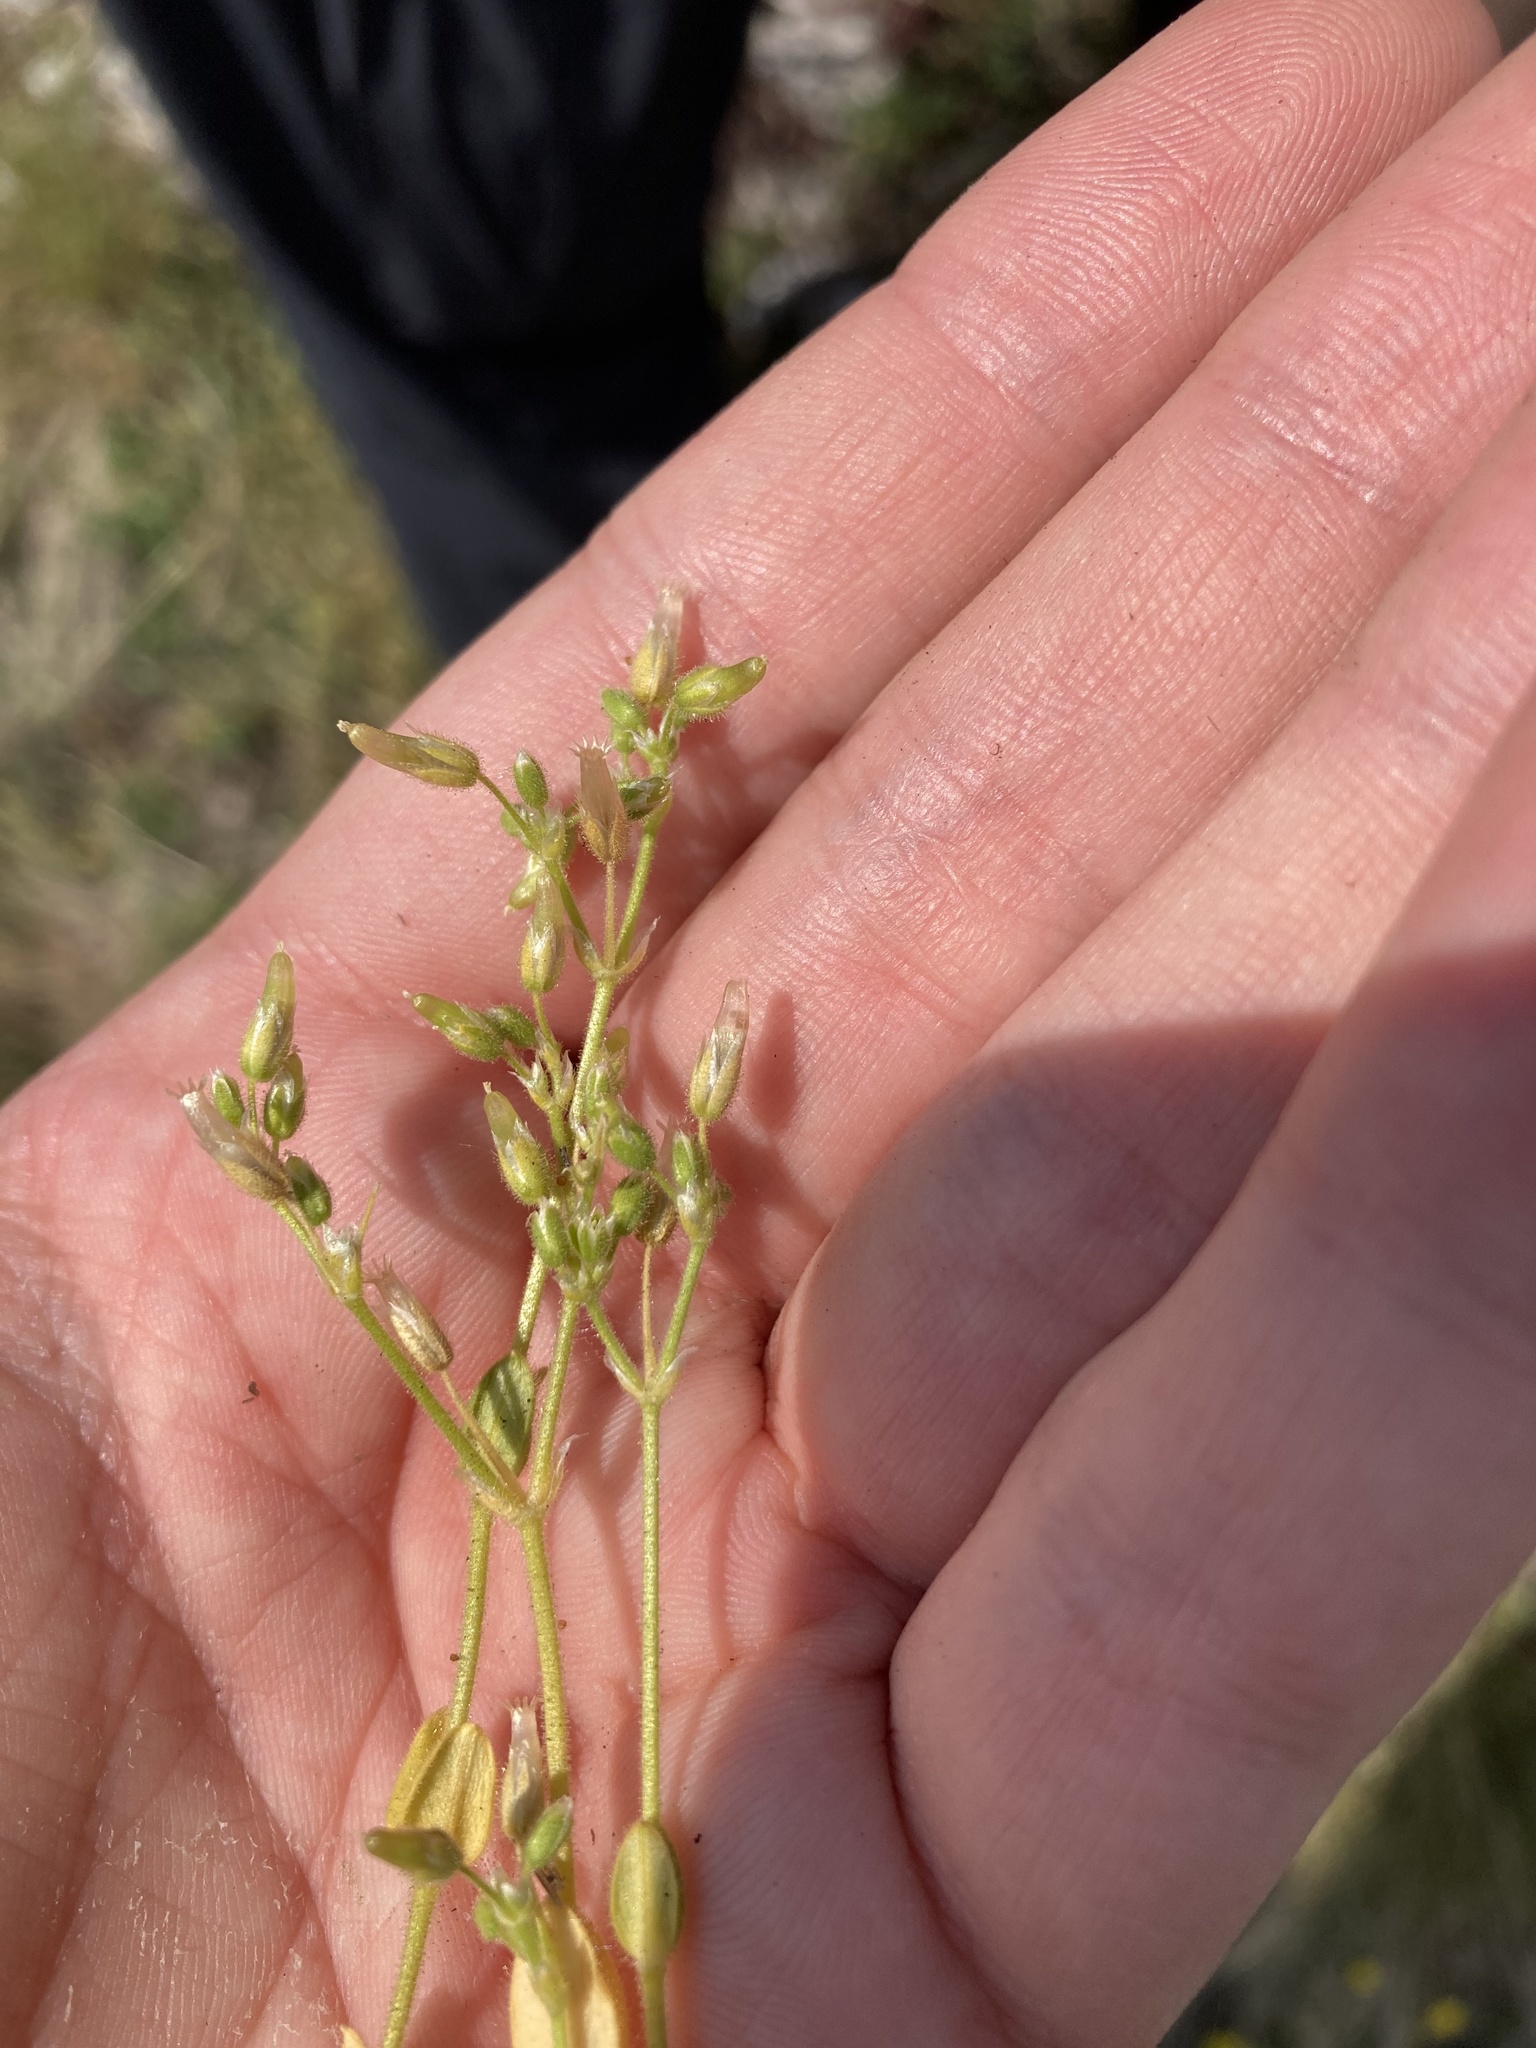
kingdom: Plantae
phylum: Tracheophyta
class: Magnoliopsida
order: Caryophyllales
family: Caryophyllaceae
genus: Cerastium
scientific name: Cerastium semidecandrum
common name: Little mouse-ear
